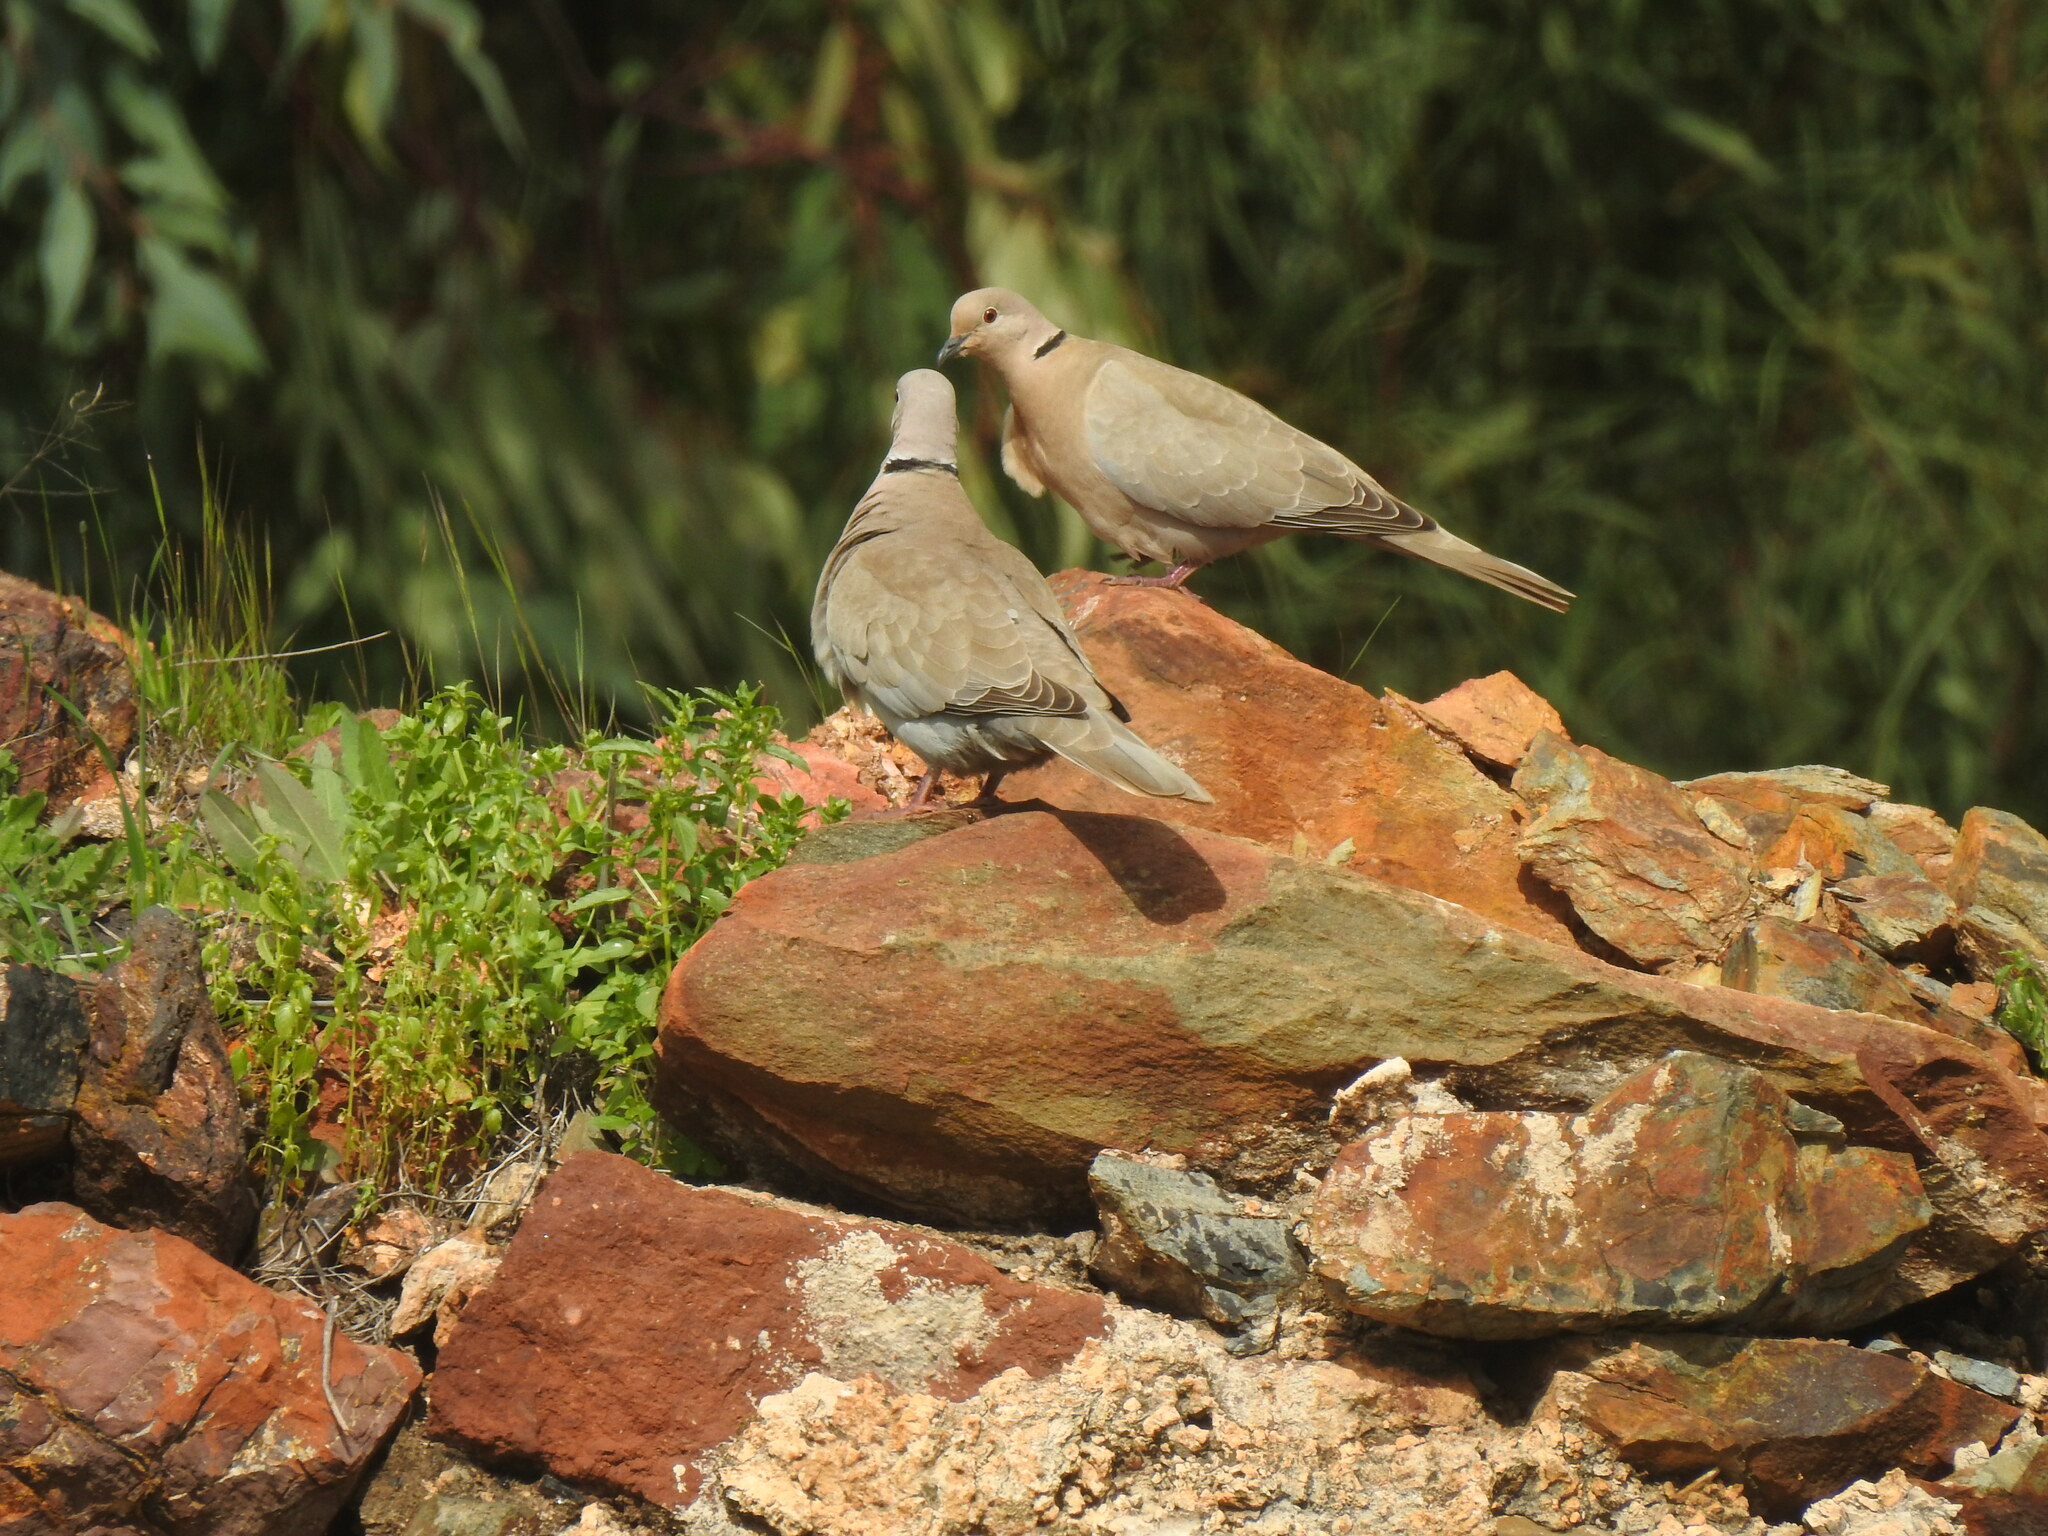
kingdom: Animalia
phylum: Chordata
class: Aves
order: Columbiformes
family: Columbidae
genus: Streptopelia
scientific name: Streptopelia decaocto
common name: Eurasian collared dove
